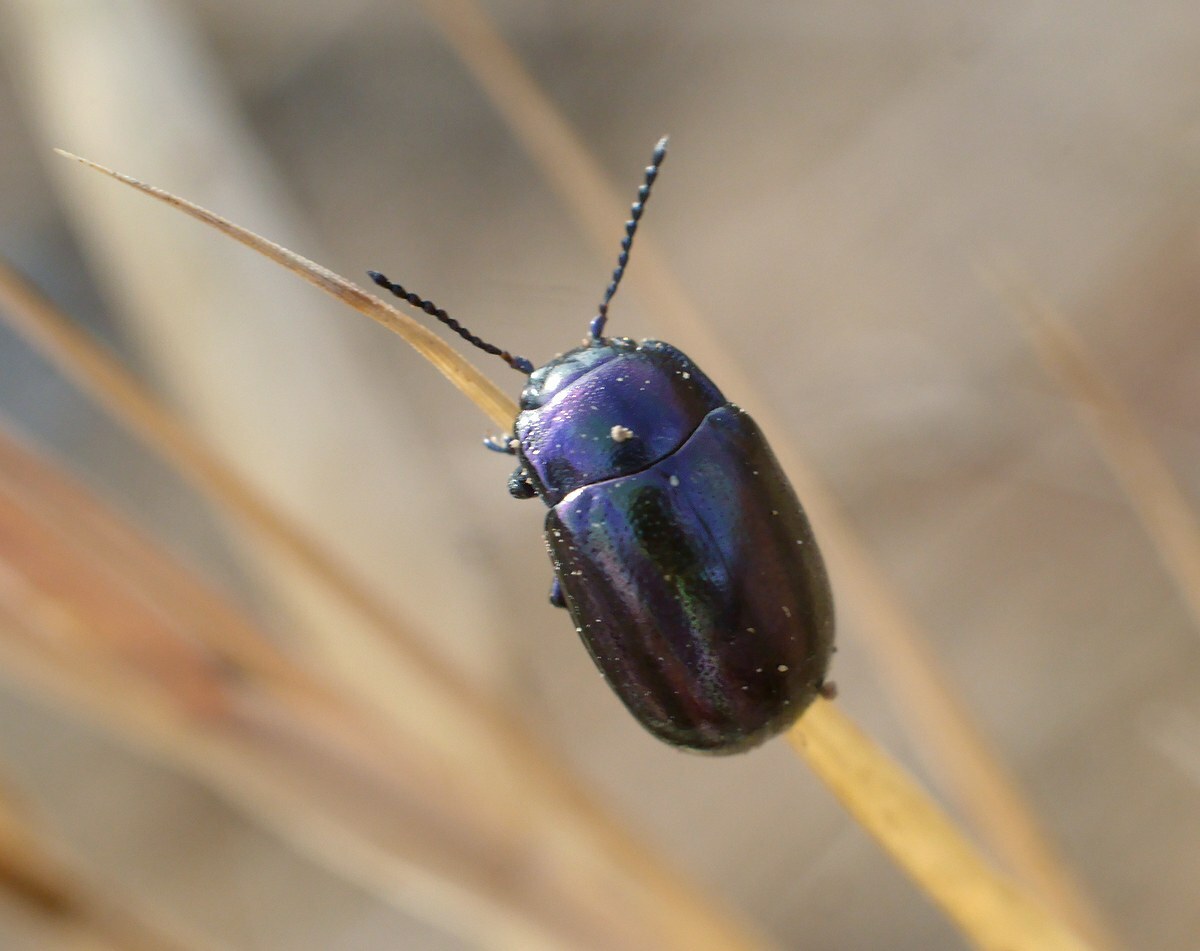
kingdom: Animalia
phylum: Arthropoda
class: Insecta
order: Coleoptera
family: Chrysomelidae
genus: Chrysolina
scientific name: Chrysolina cerealis
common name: Rainbow leaf beetle
